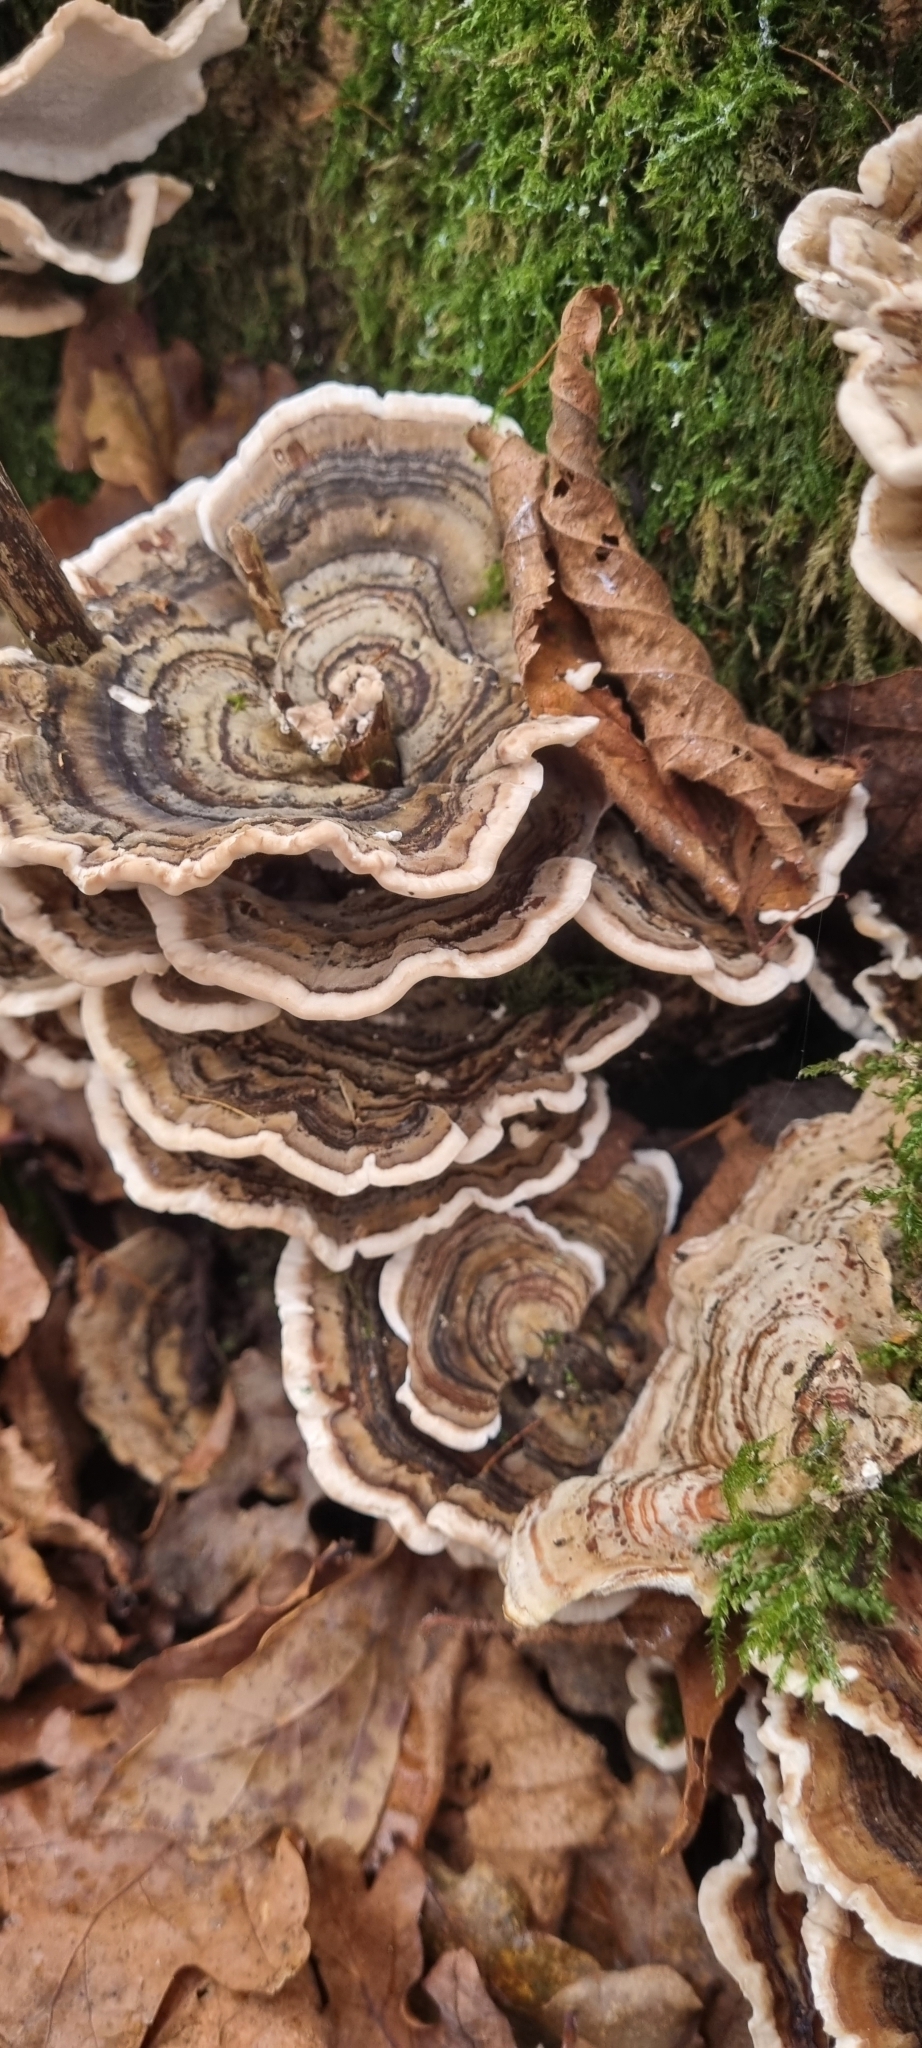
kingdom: Fungi
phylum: Basidiomycota
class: Agaricomycetes
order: Polyporales
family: Polyporaceae
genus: Trametes
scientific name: Trametes versicolor
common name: Turkeytail
